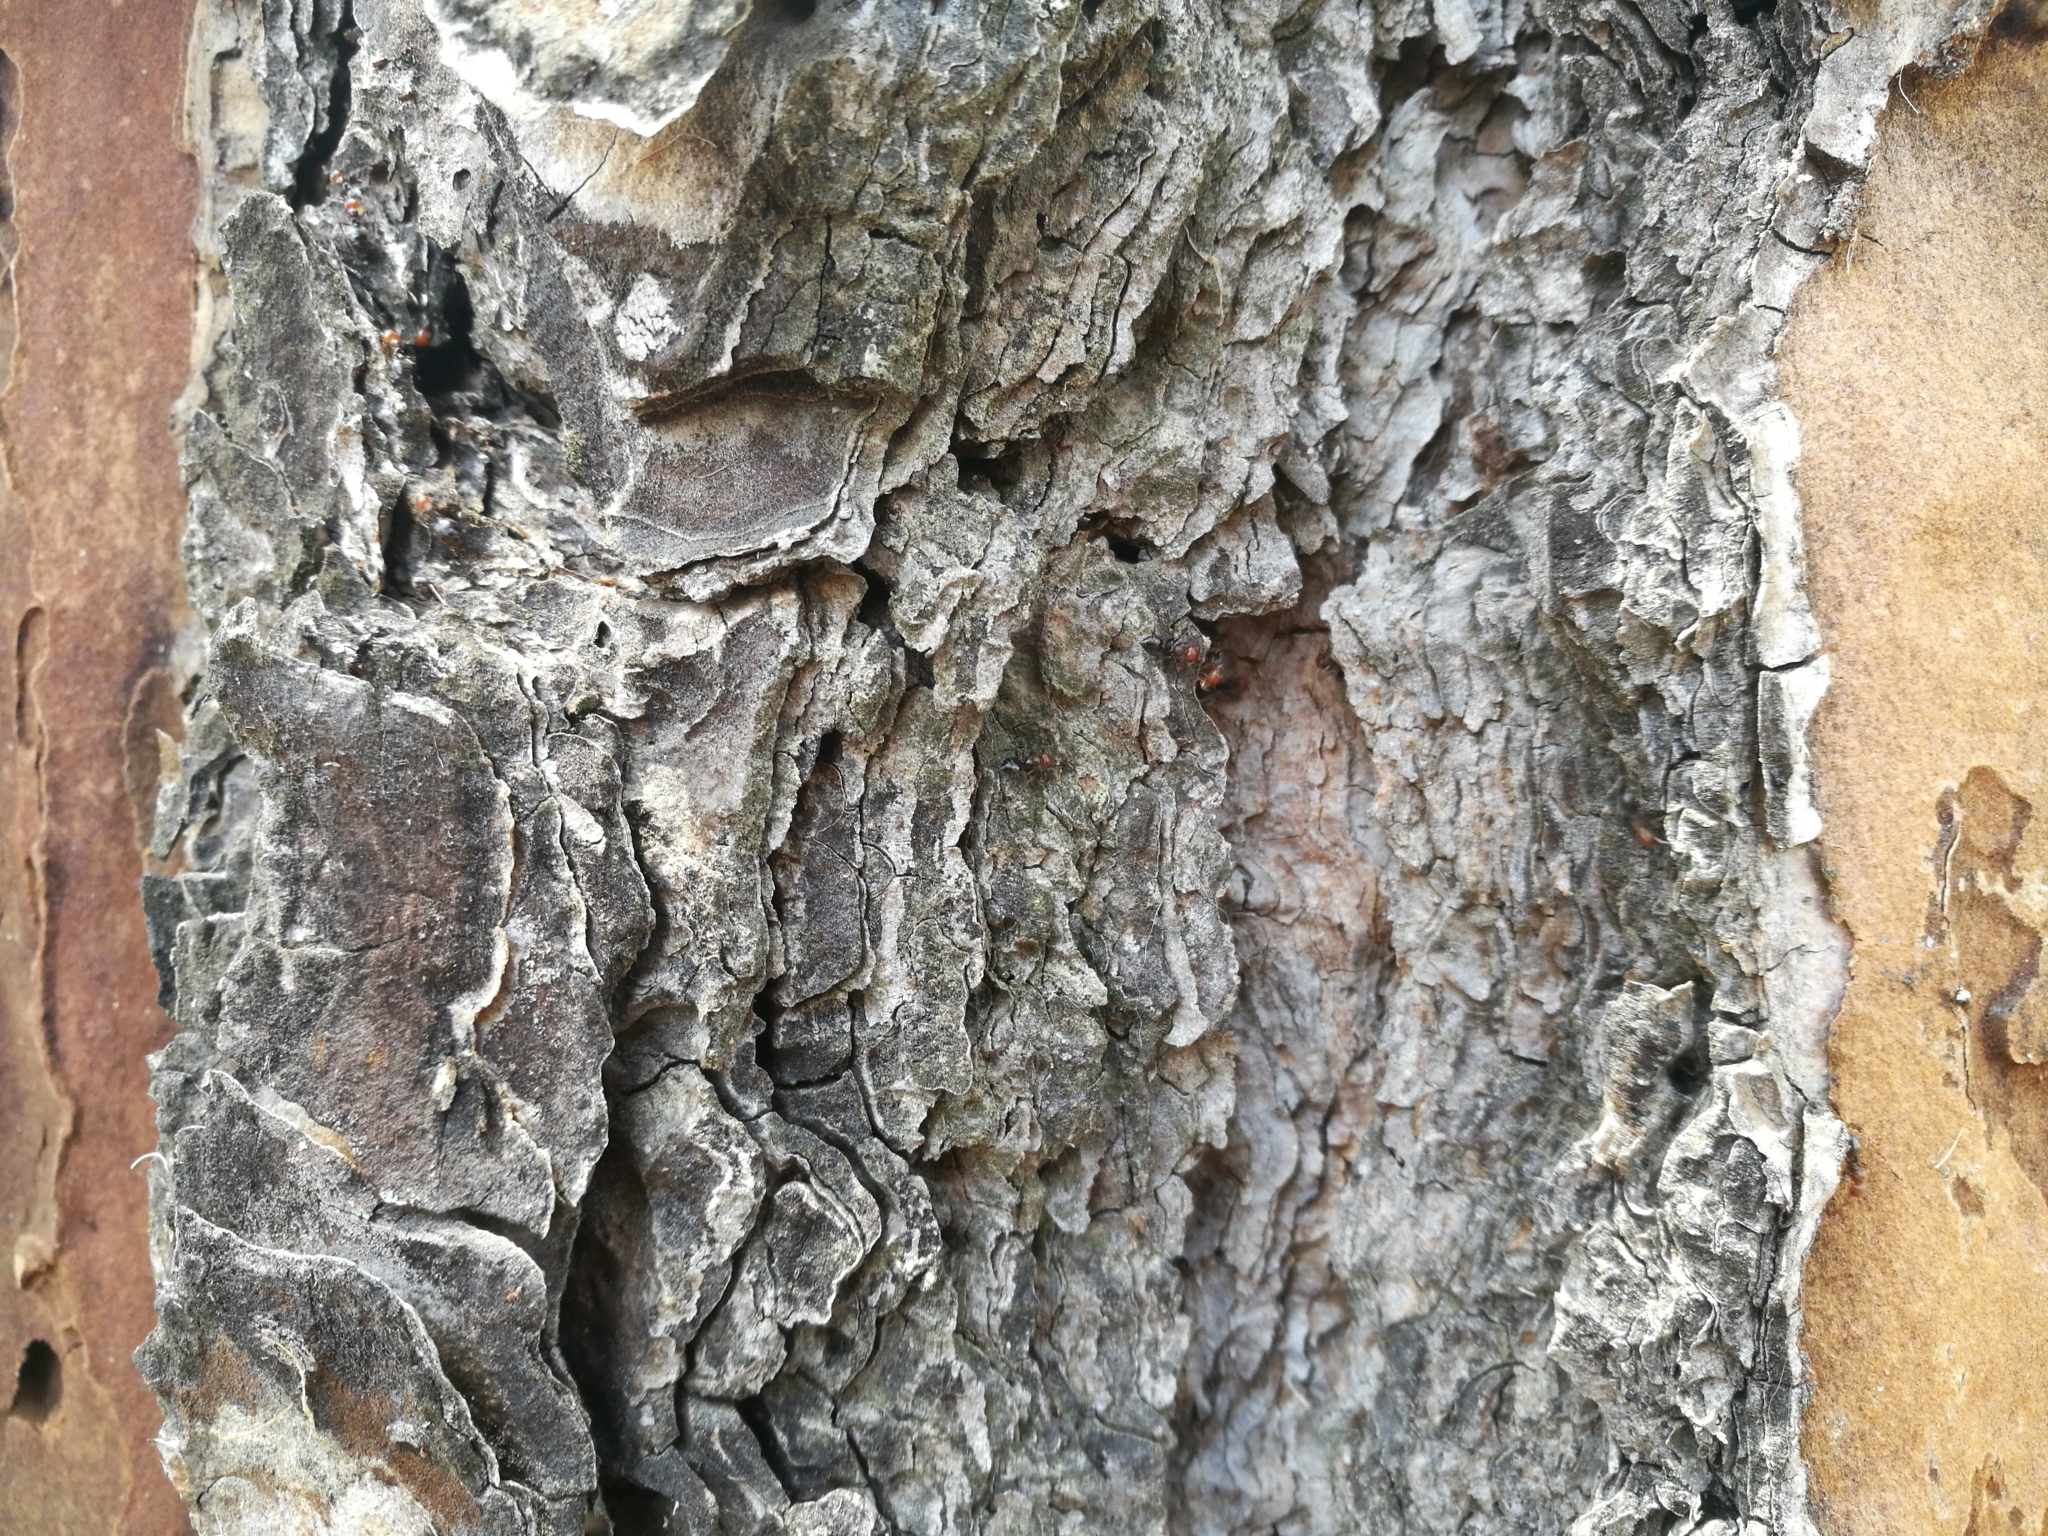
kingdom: Animalia
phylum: Arthropoda
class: Insecta
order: Hymenoptera
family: Formicidae
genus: Crematogaster
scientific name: Crematogaster scutellaris
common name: Fourmi du liège
